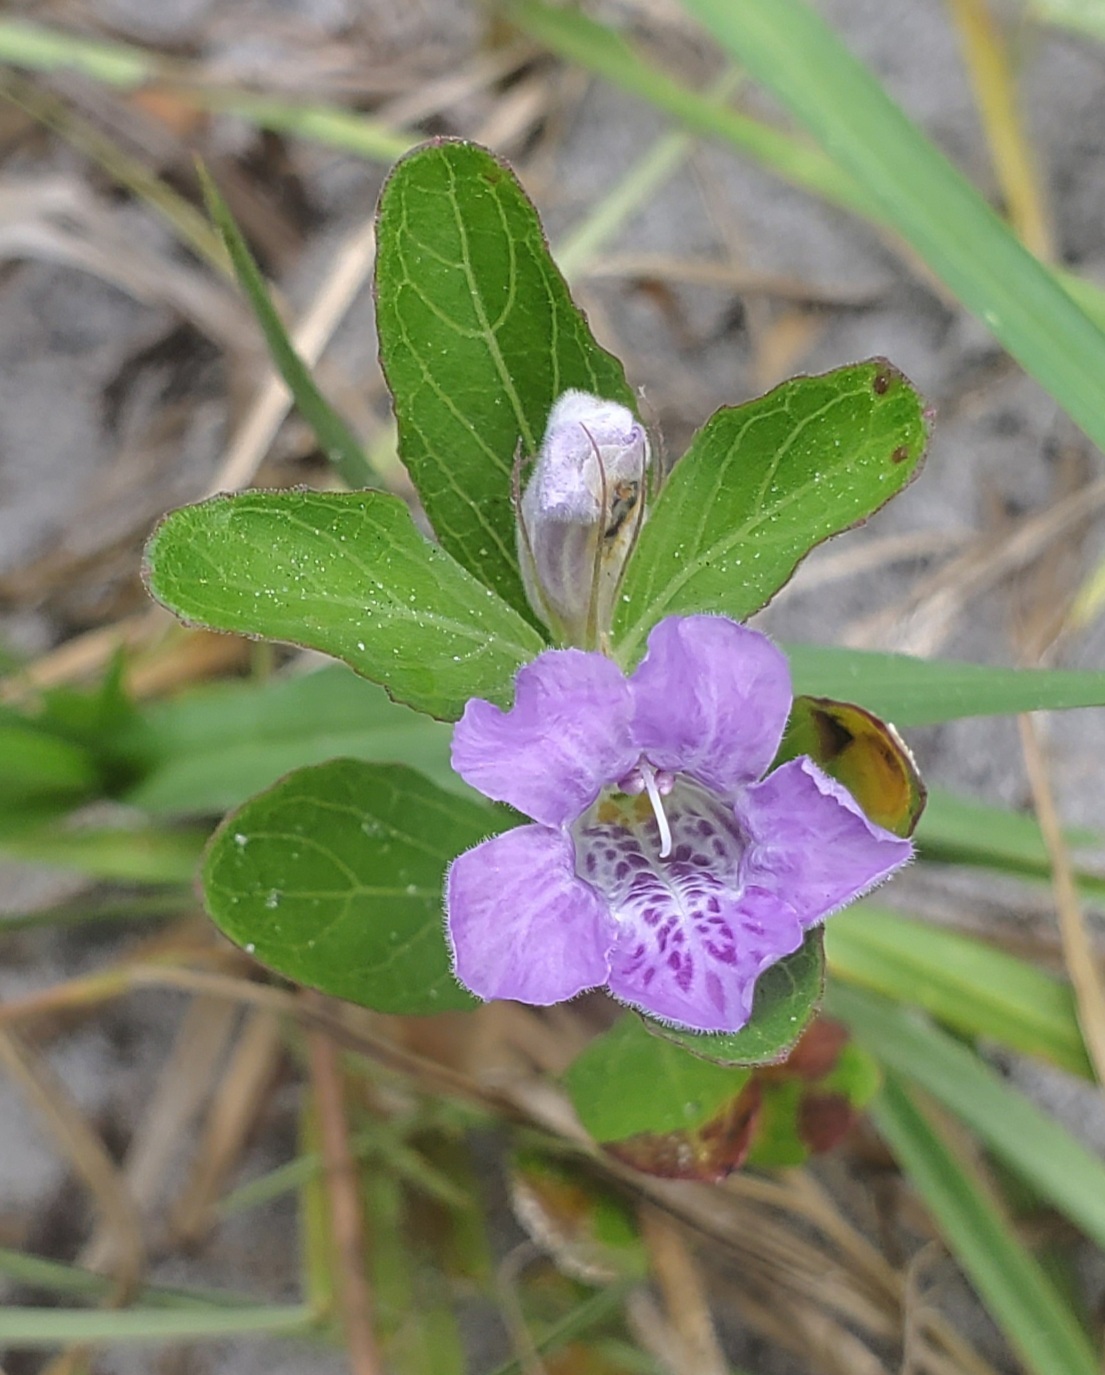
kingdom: Plantae
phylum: Tracheophyta
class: Magnoliopsida
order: Lamiales
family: Acanthaceae
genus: Dyschoriste
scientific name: Dyschoriste oblongifolia
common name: Blue twinflower
